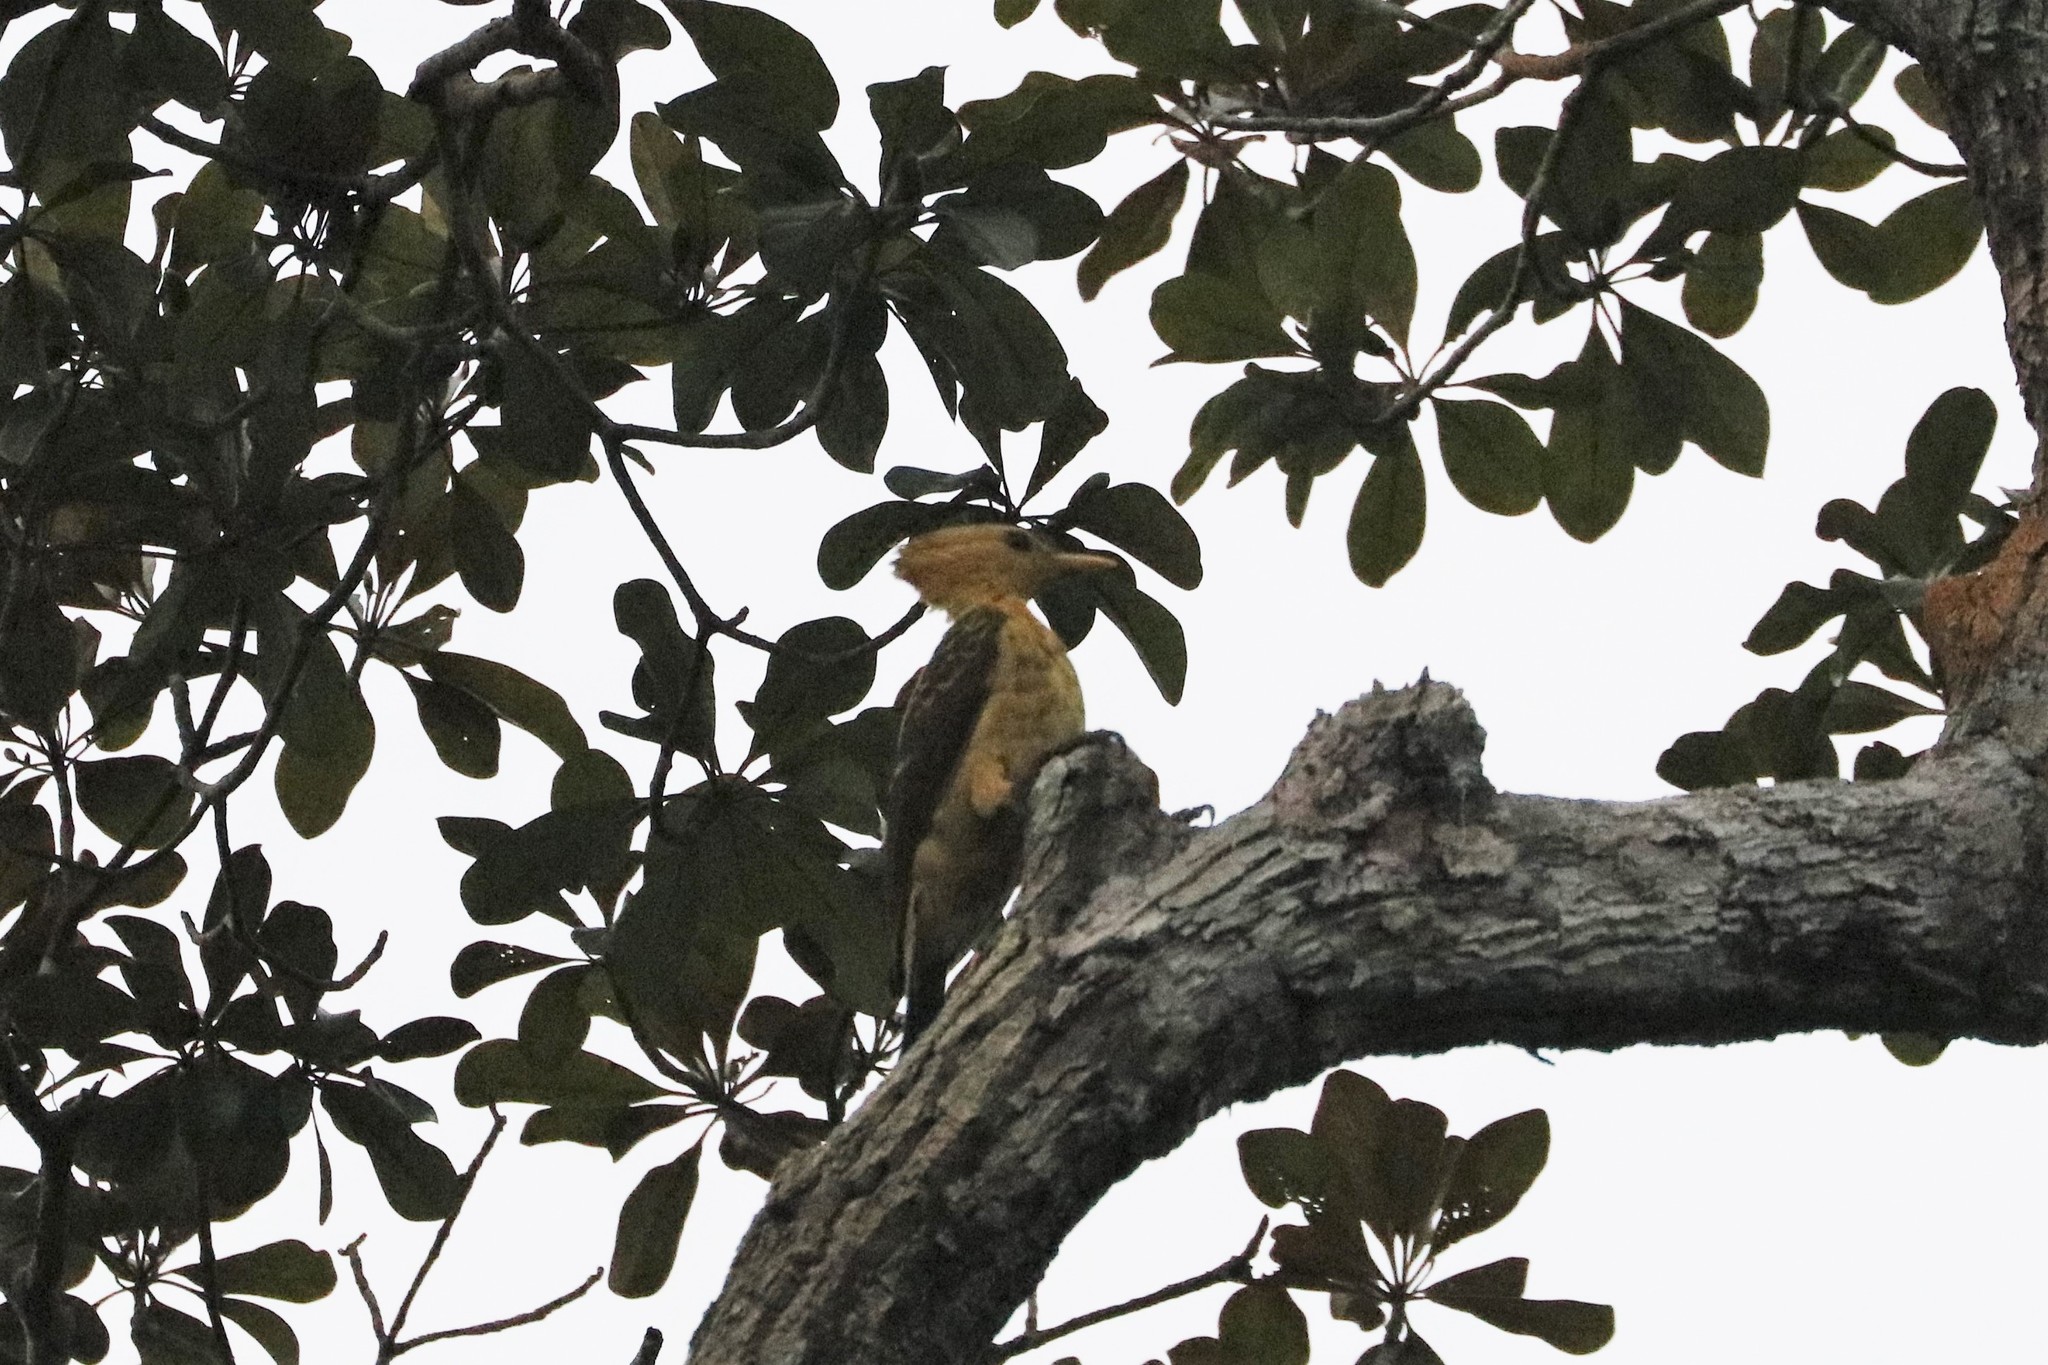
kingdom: Animalia
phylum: Chordata
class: Aves
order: Piciformes
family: Picidae
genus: Celeus
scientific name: Celeus flavus
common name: Cream-colored woodpecker
